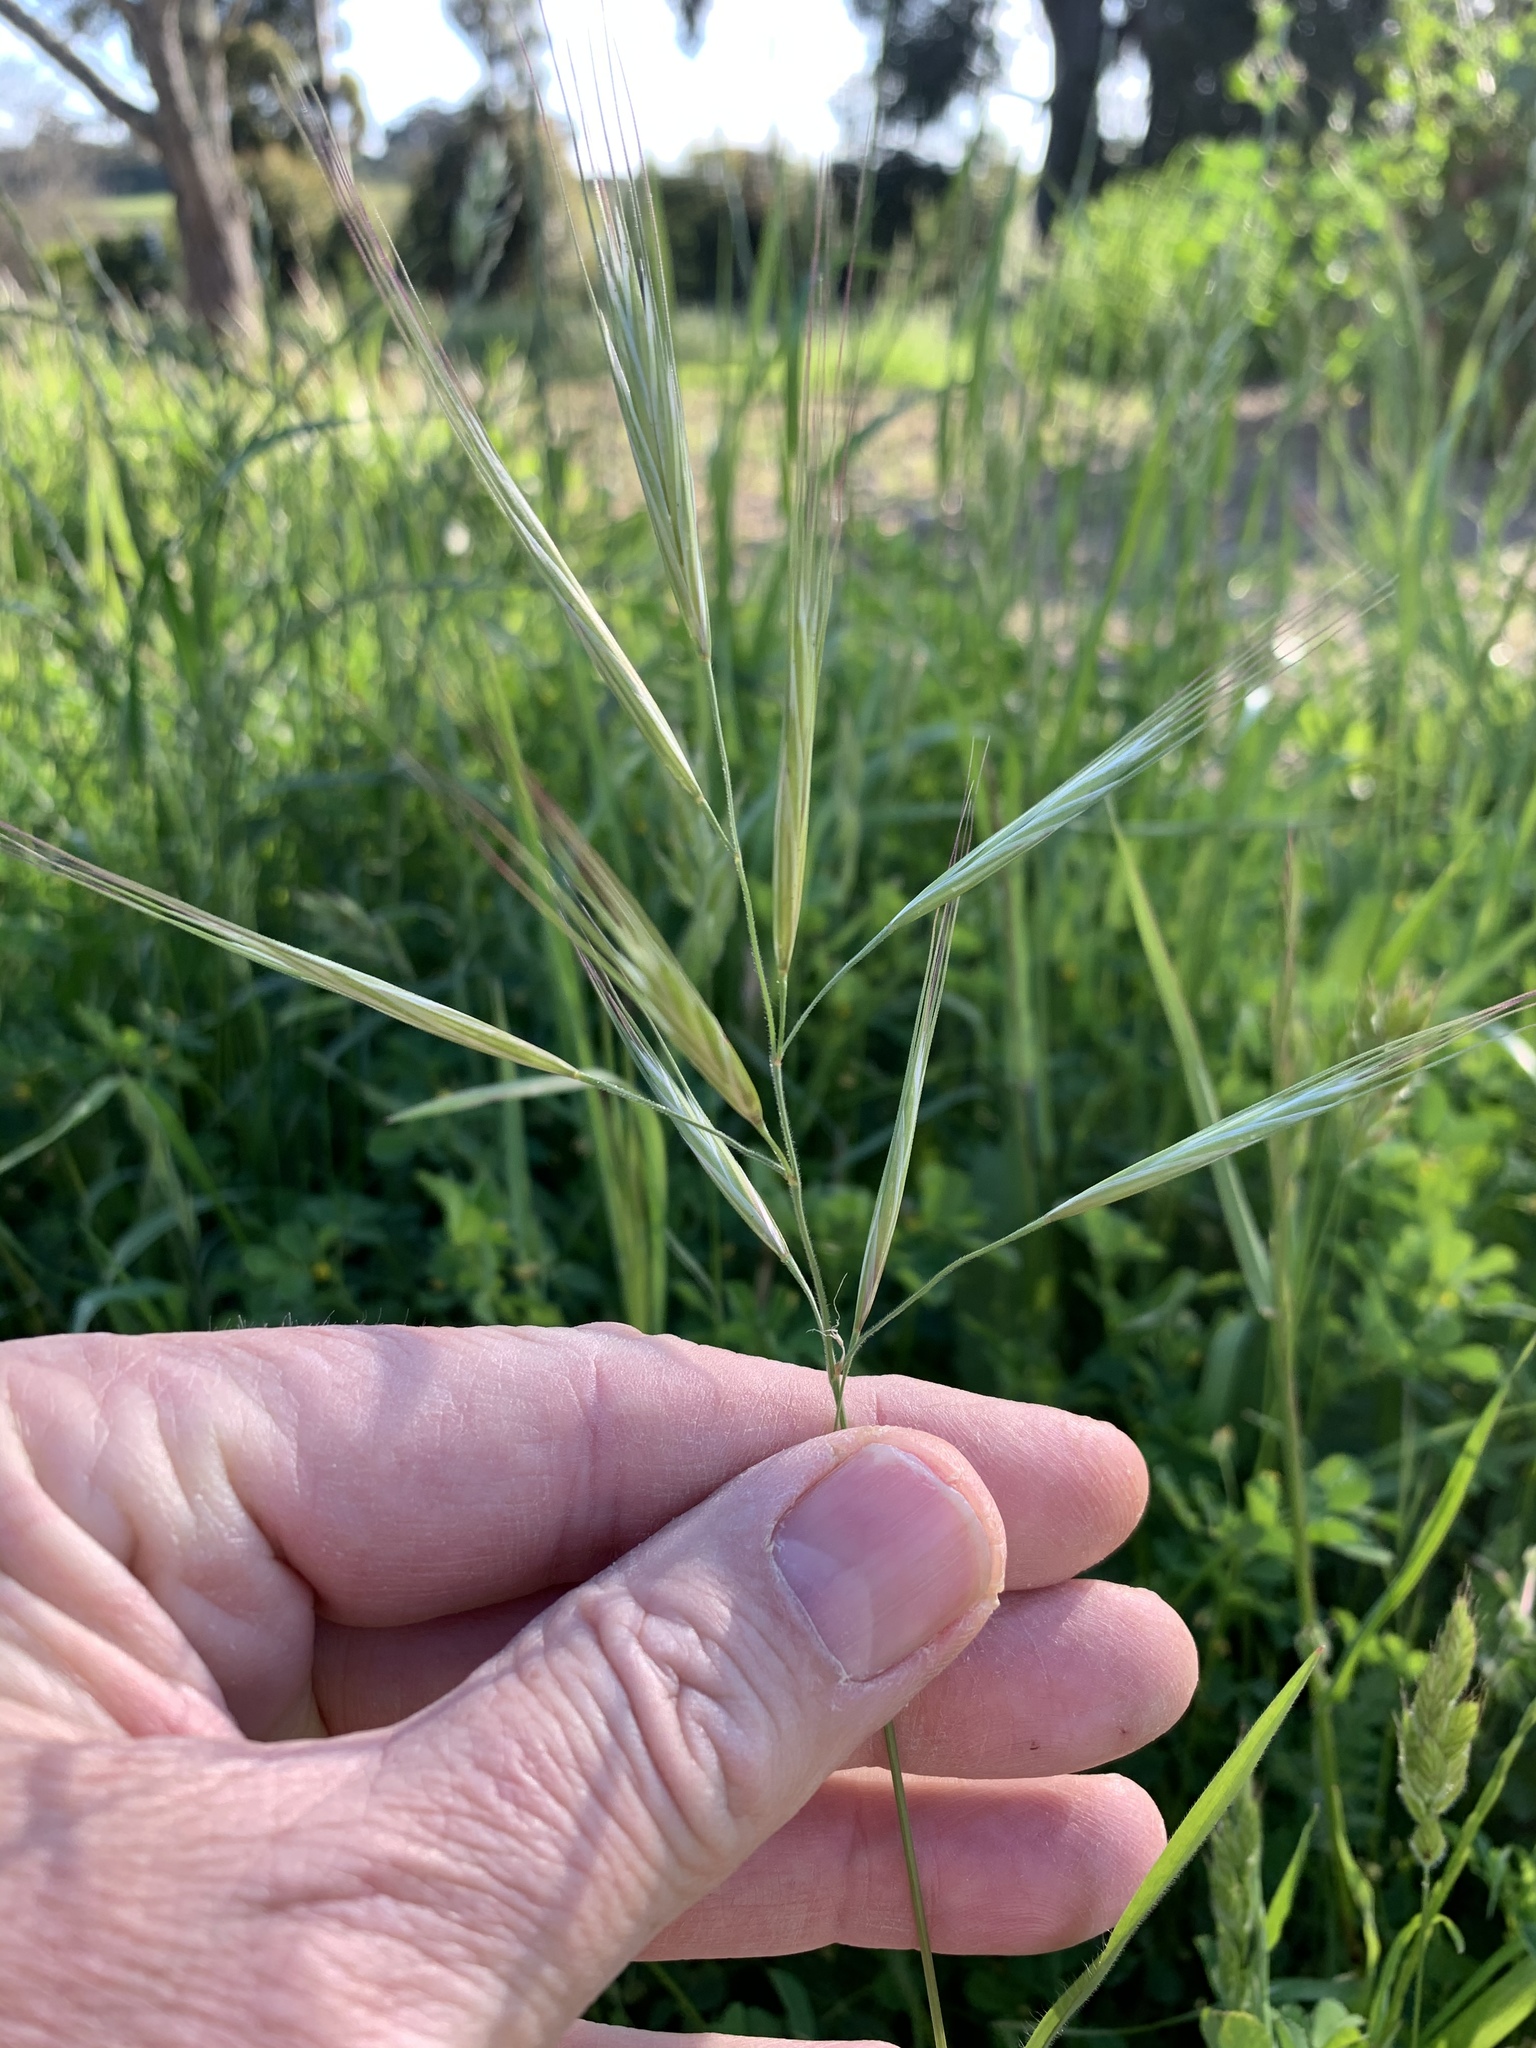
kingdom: Plantae
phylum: Tracheophyta
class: Liliopsida
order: Poales
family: Poaceae
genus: Bromus
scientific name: Bromus diandrus
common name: Ripgut brome
